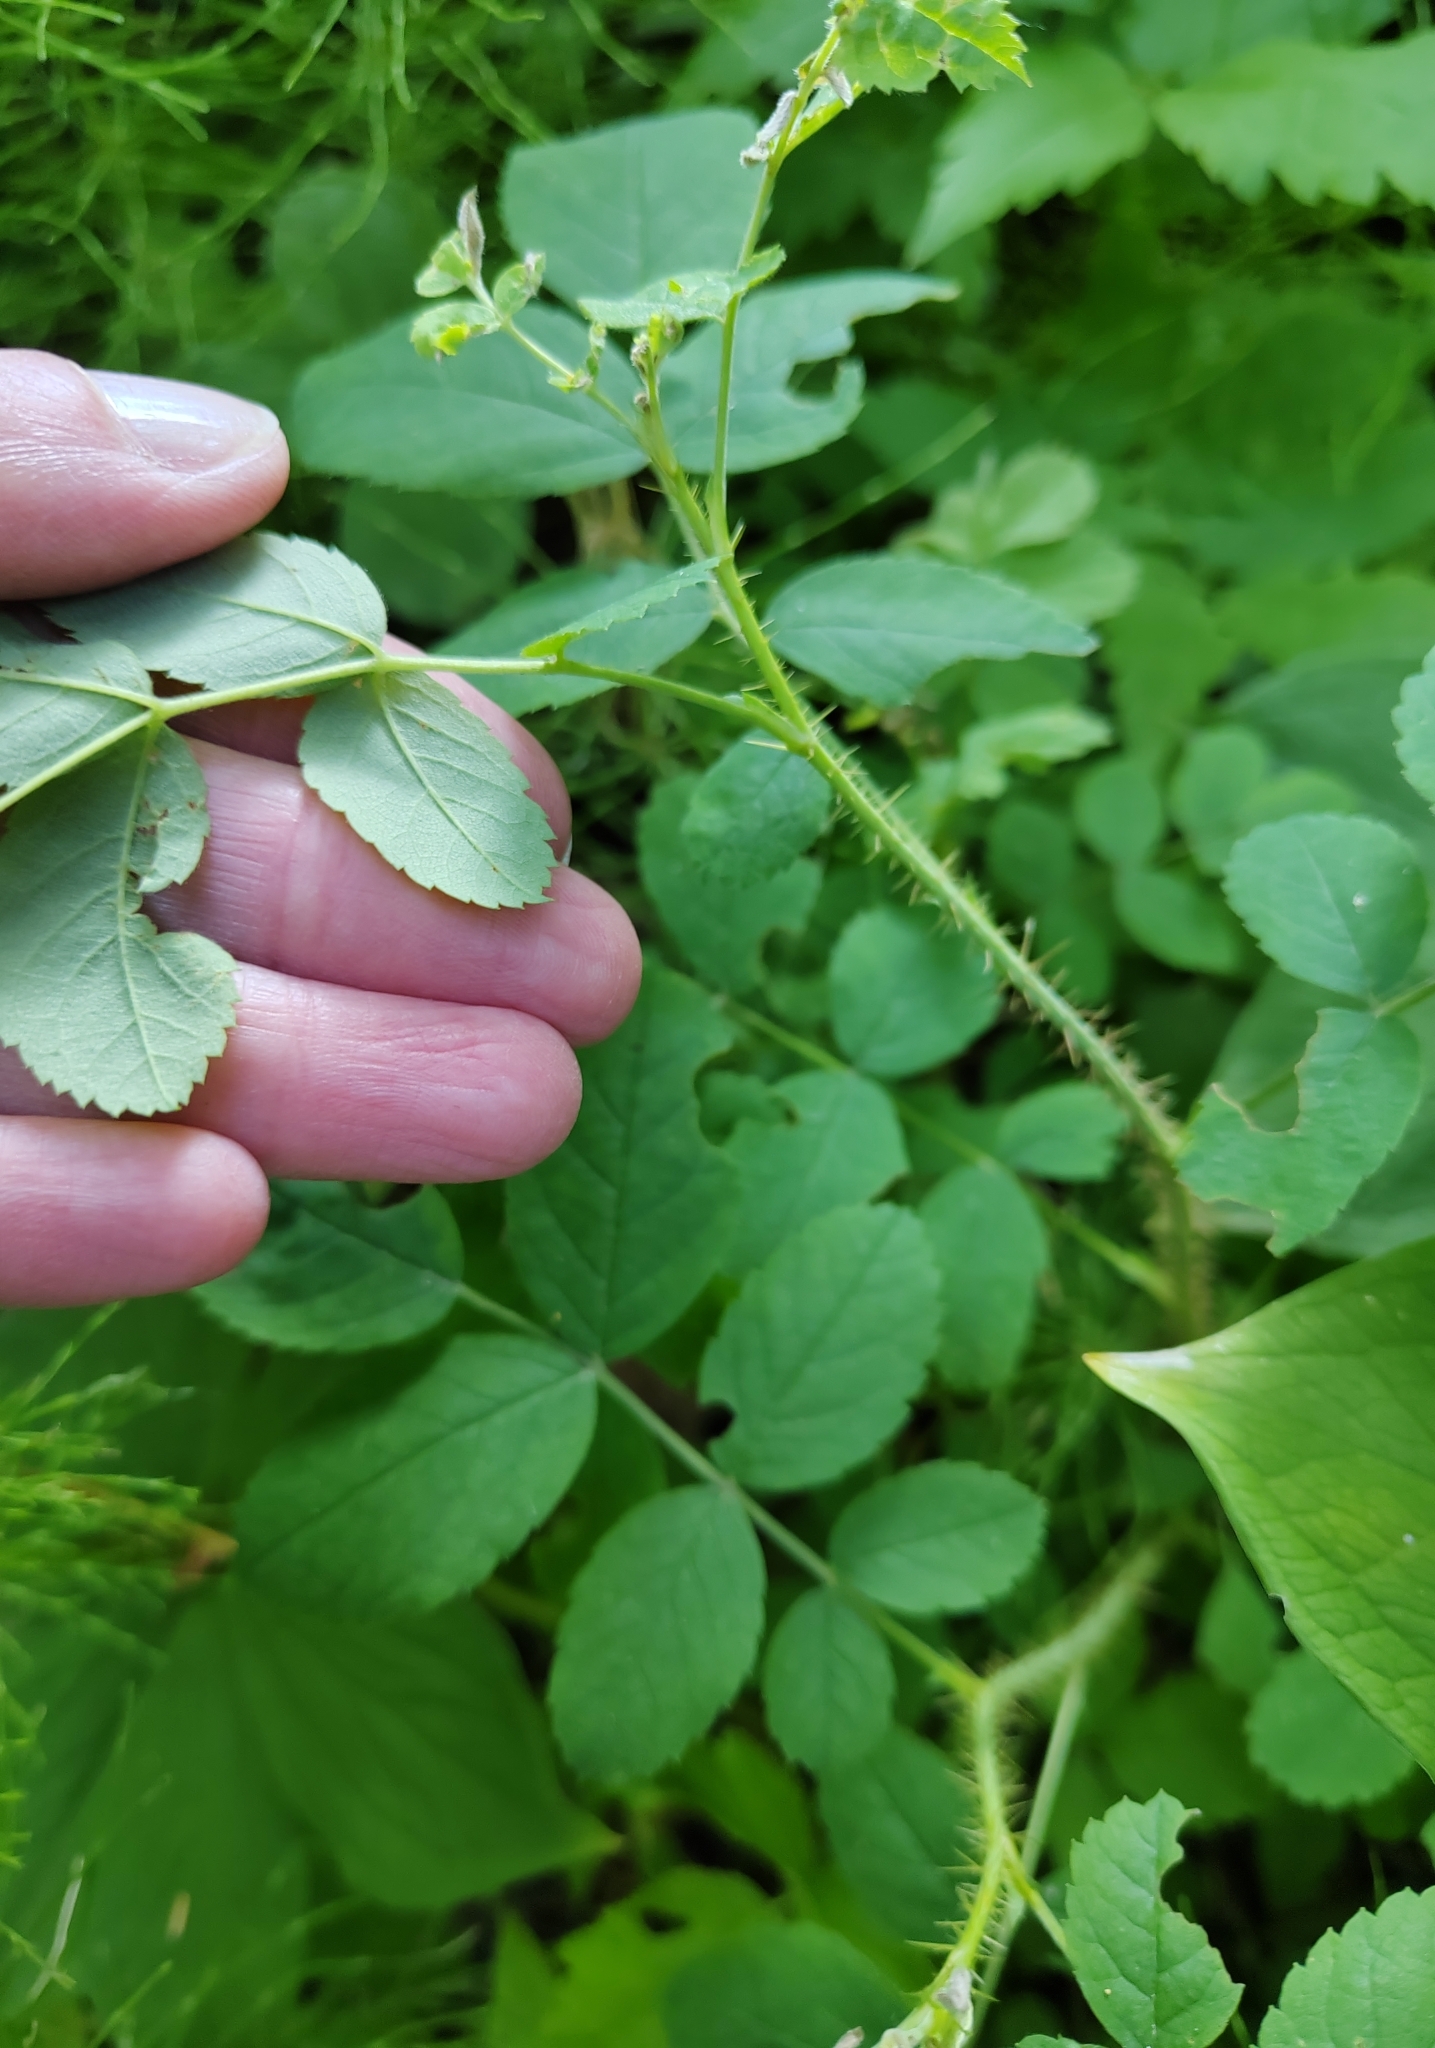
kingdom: Plantae
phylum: Tracheophyta
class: Magnoliopsida
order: Rosales
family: Rosaceae
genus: Rosa
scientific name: Rosa acicularis
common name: Prickly rose
